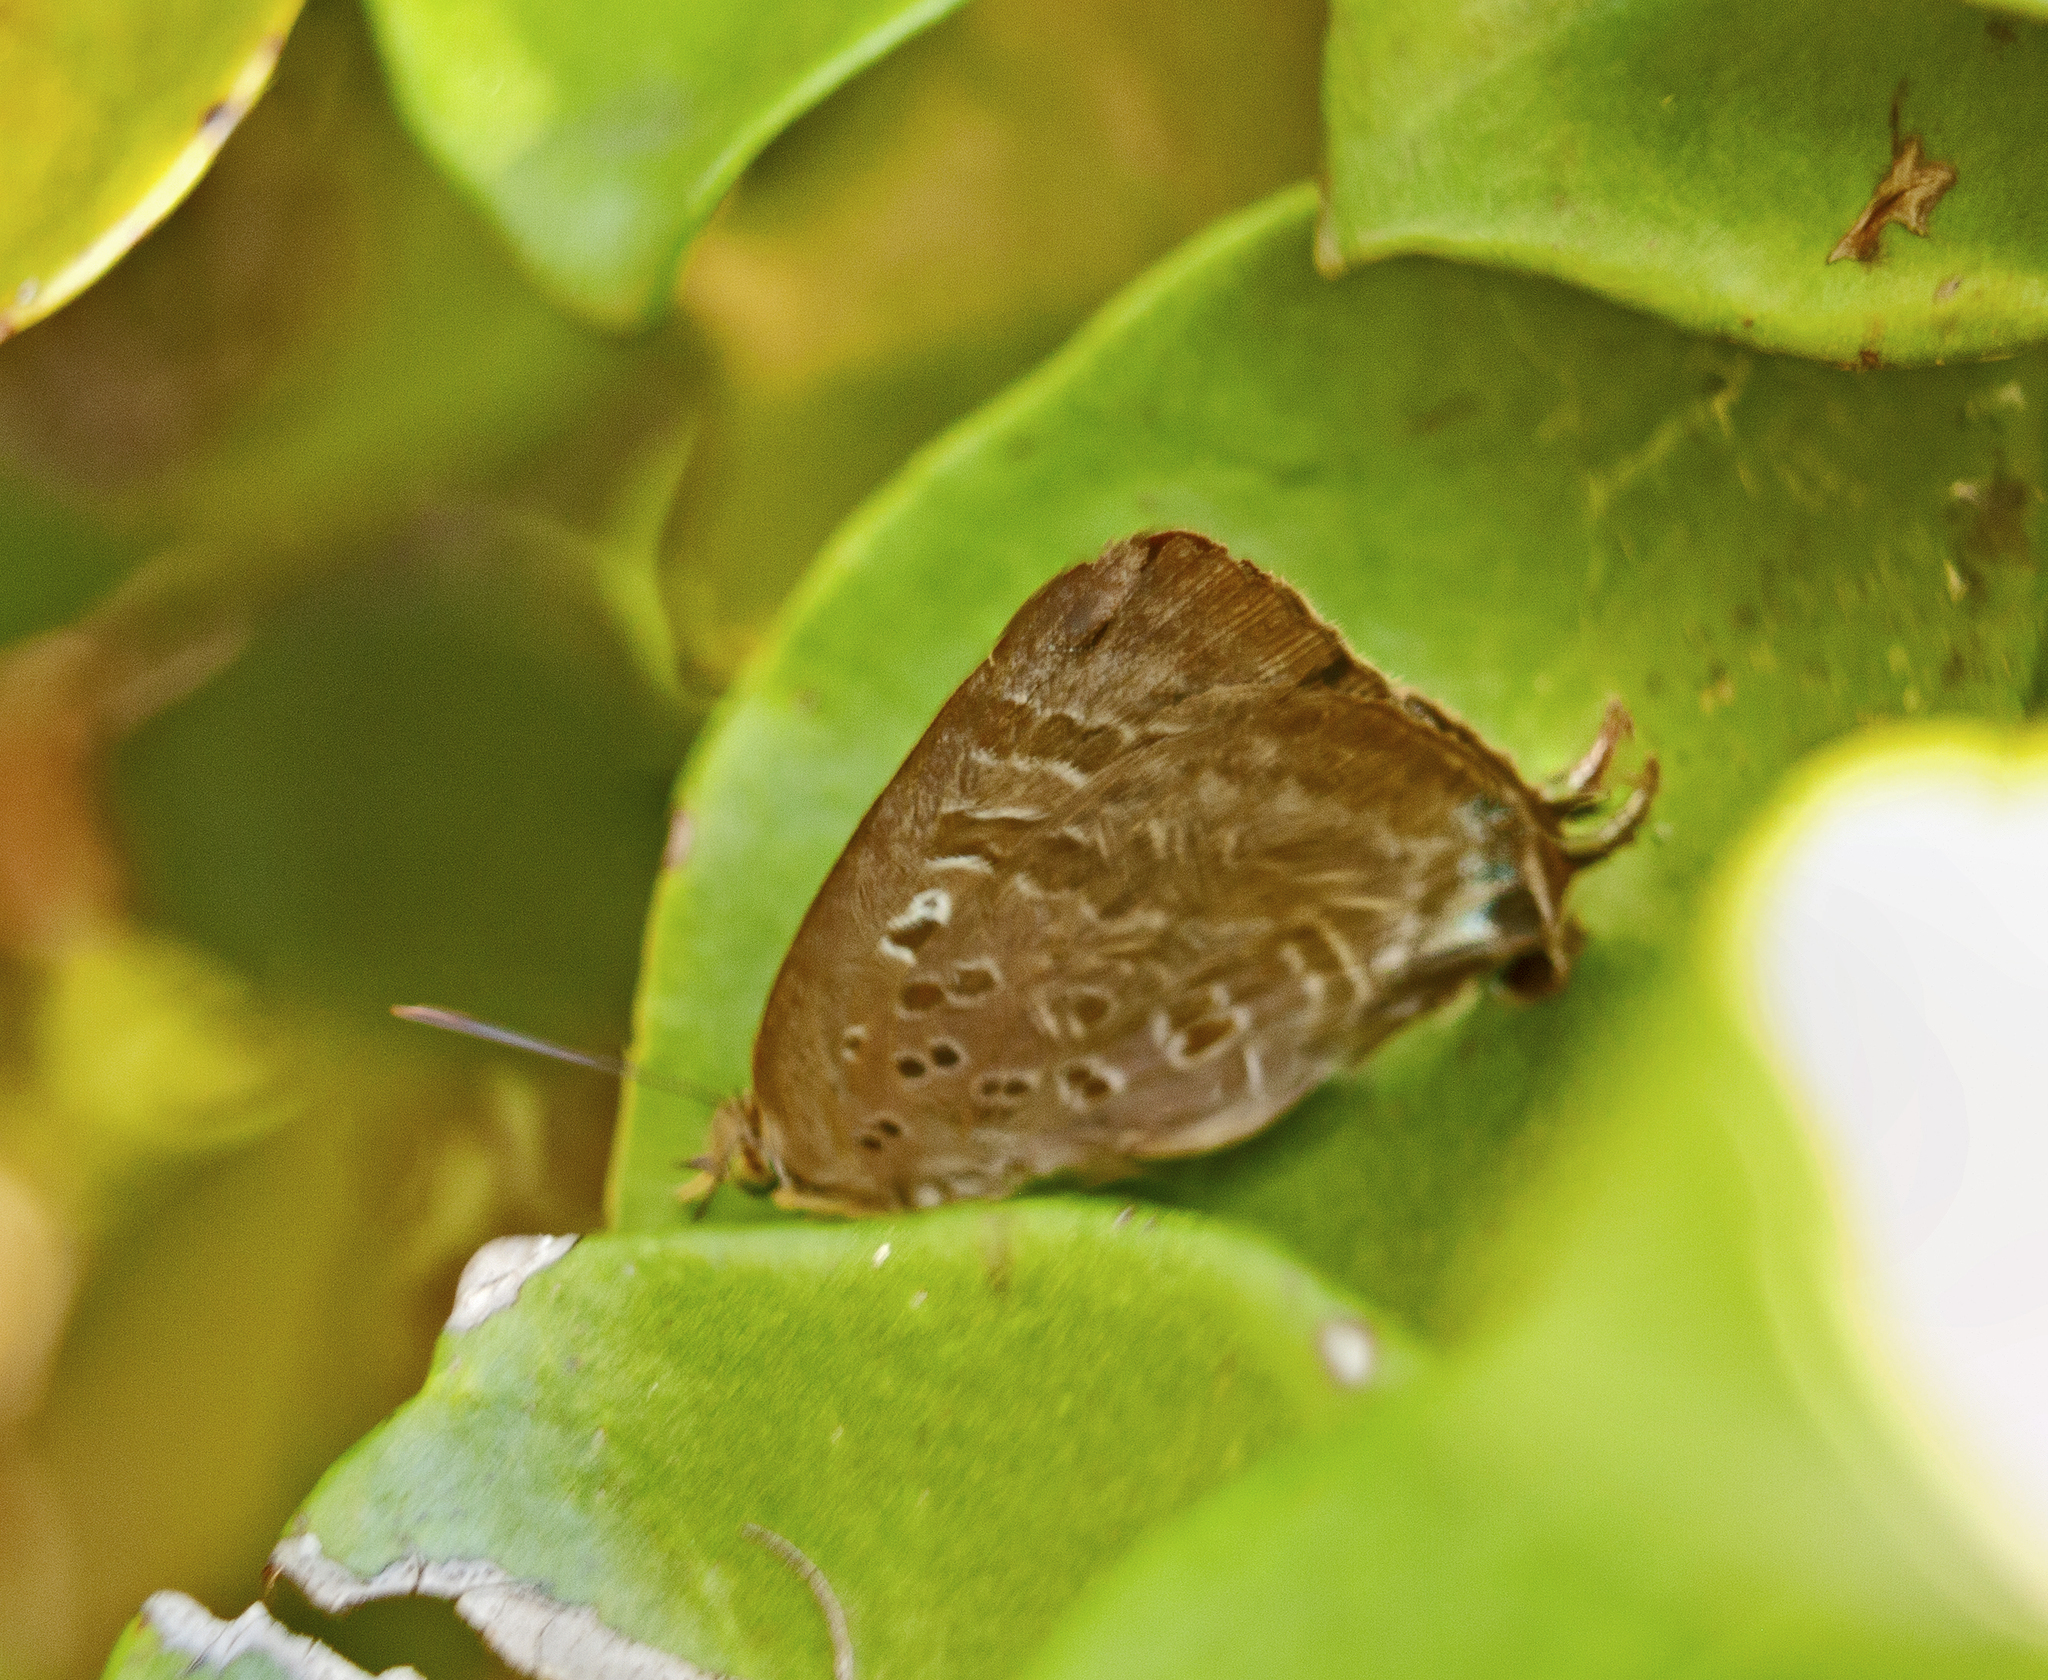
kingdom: Animalia
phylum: Arthropoda
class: Insecta
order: Lepidoptera
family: Lycaenidae
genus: Arhopala
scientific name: Arhopala
